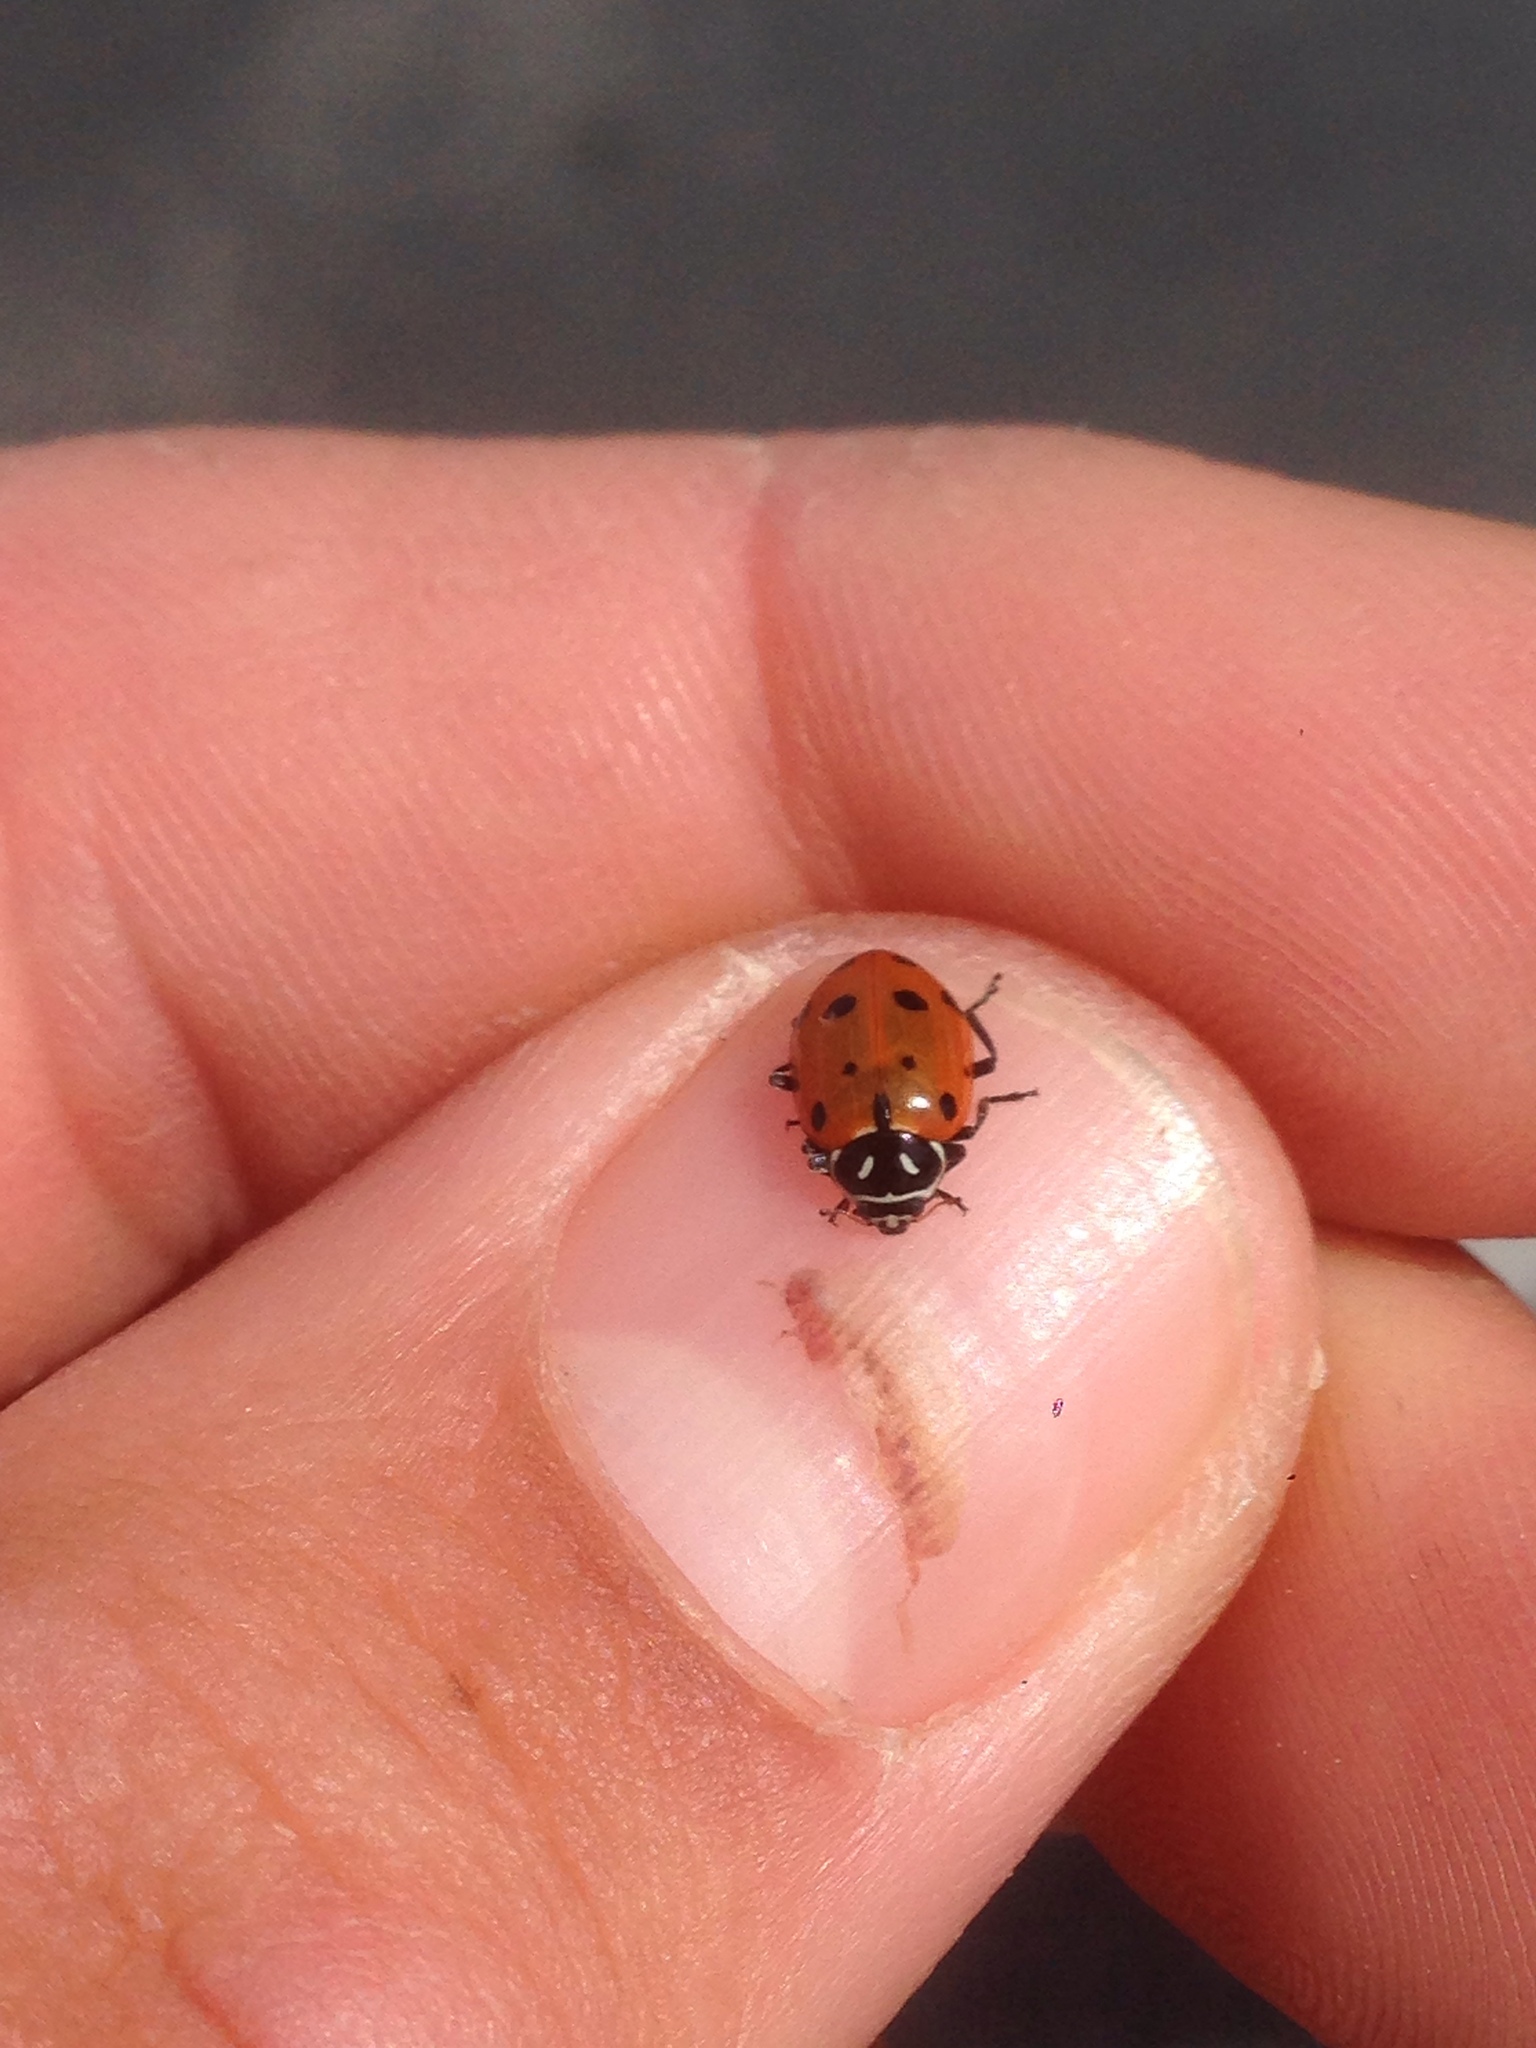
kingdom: Animalia
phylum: Arthropoda
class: Insecta
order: Coleoptera
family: Coccinellidae
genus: Hippodamia
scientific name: Hippodamia convergens
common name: Convergent lady beetle
